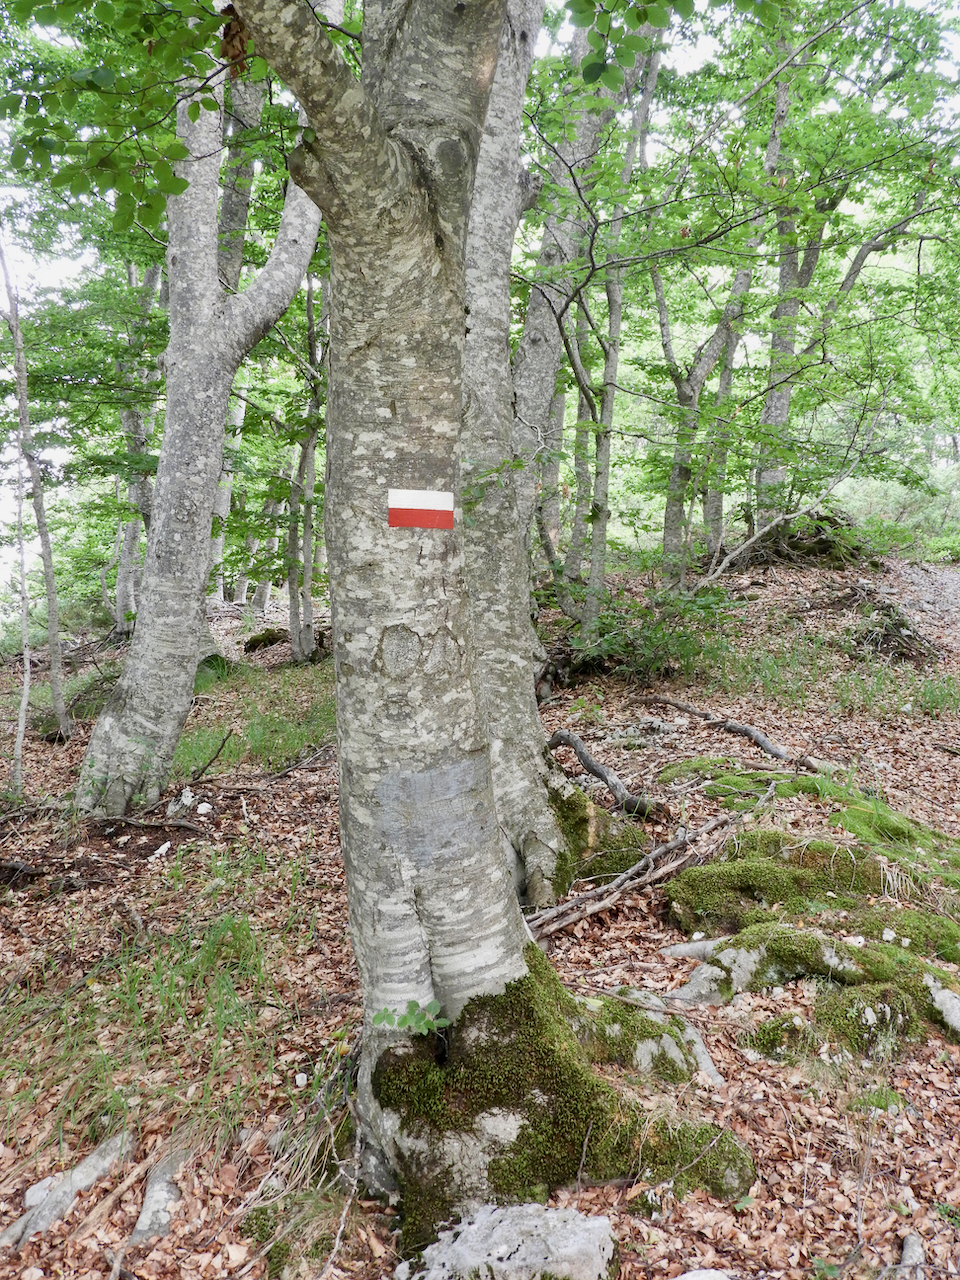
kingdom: Plantae
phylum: Tracheophyta
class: Magnoliopsida
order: Fagales
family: Fagaceae
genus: Fagus
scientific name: Fagus sylvatica
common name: Beech
